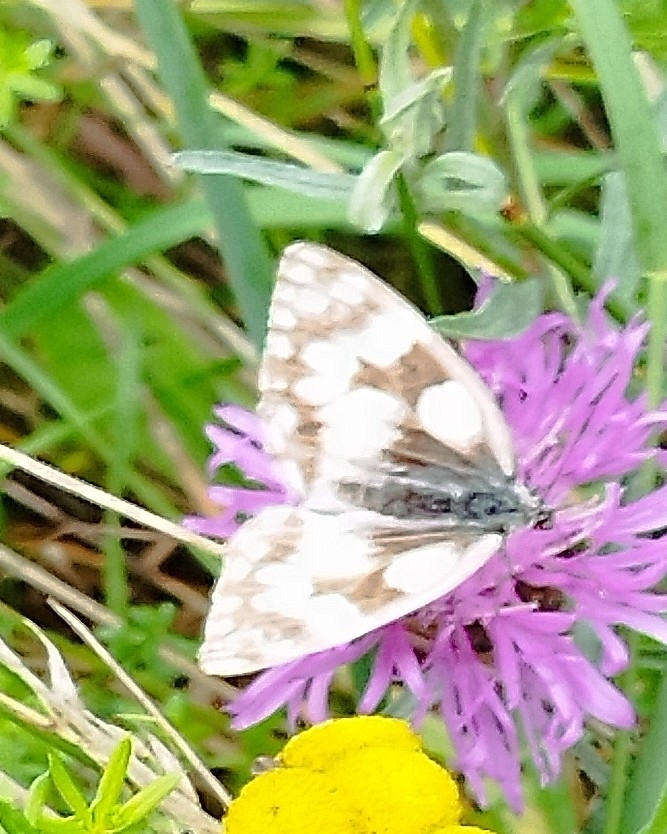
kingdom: Animalia
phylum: Arthropoda
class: Insecta
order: Lepidoptera
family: Nymphalidae
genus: Melanargia
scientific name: Melanargia galathea
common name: Marbled white
